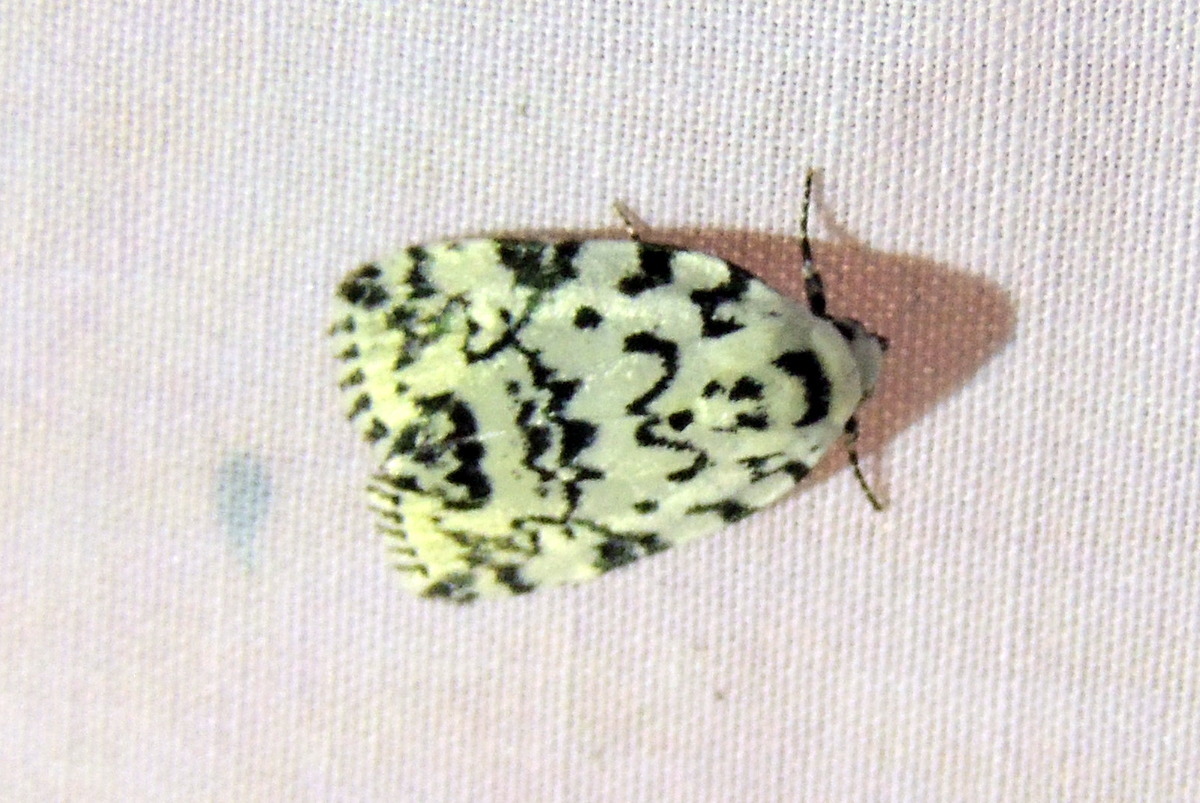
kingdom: Animalia
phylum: Arthropoda
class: Insecta
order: Lepidoptera
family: Noctuidae
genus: Polygrammate
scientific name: Polygrammate hebraeicum
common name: Hebrew moth
